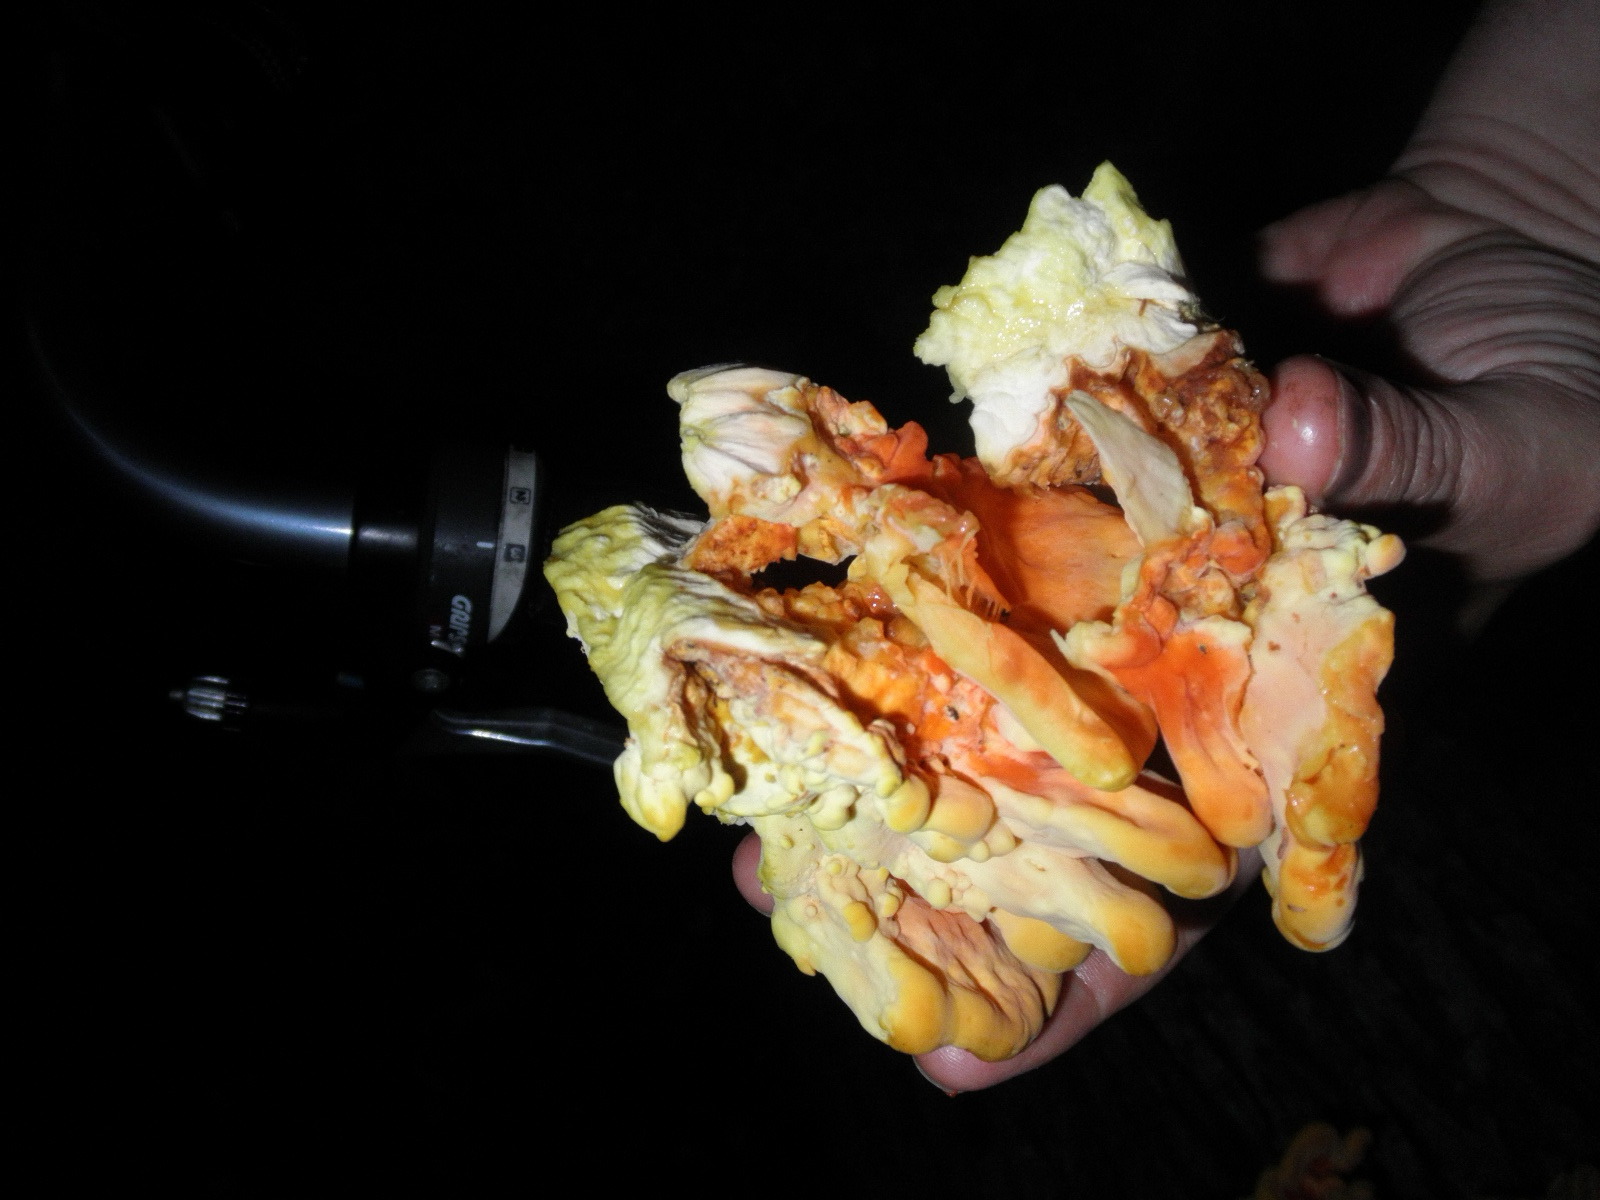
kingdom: Fungi
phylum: Basidiomycota
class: Agaricomycetes
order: Polyporales
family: Laetiporaceae
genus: Laetiporus
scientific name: Laetiporus sulphureus
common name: Chicken of the woods
